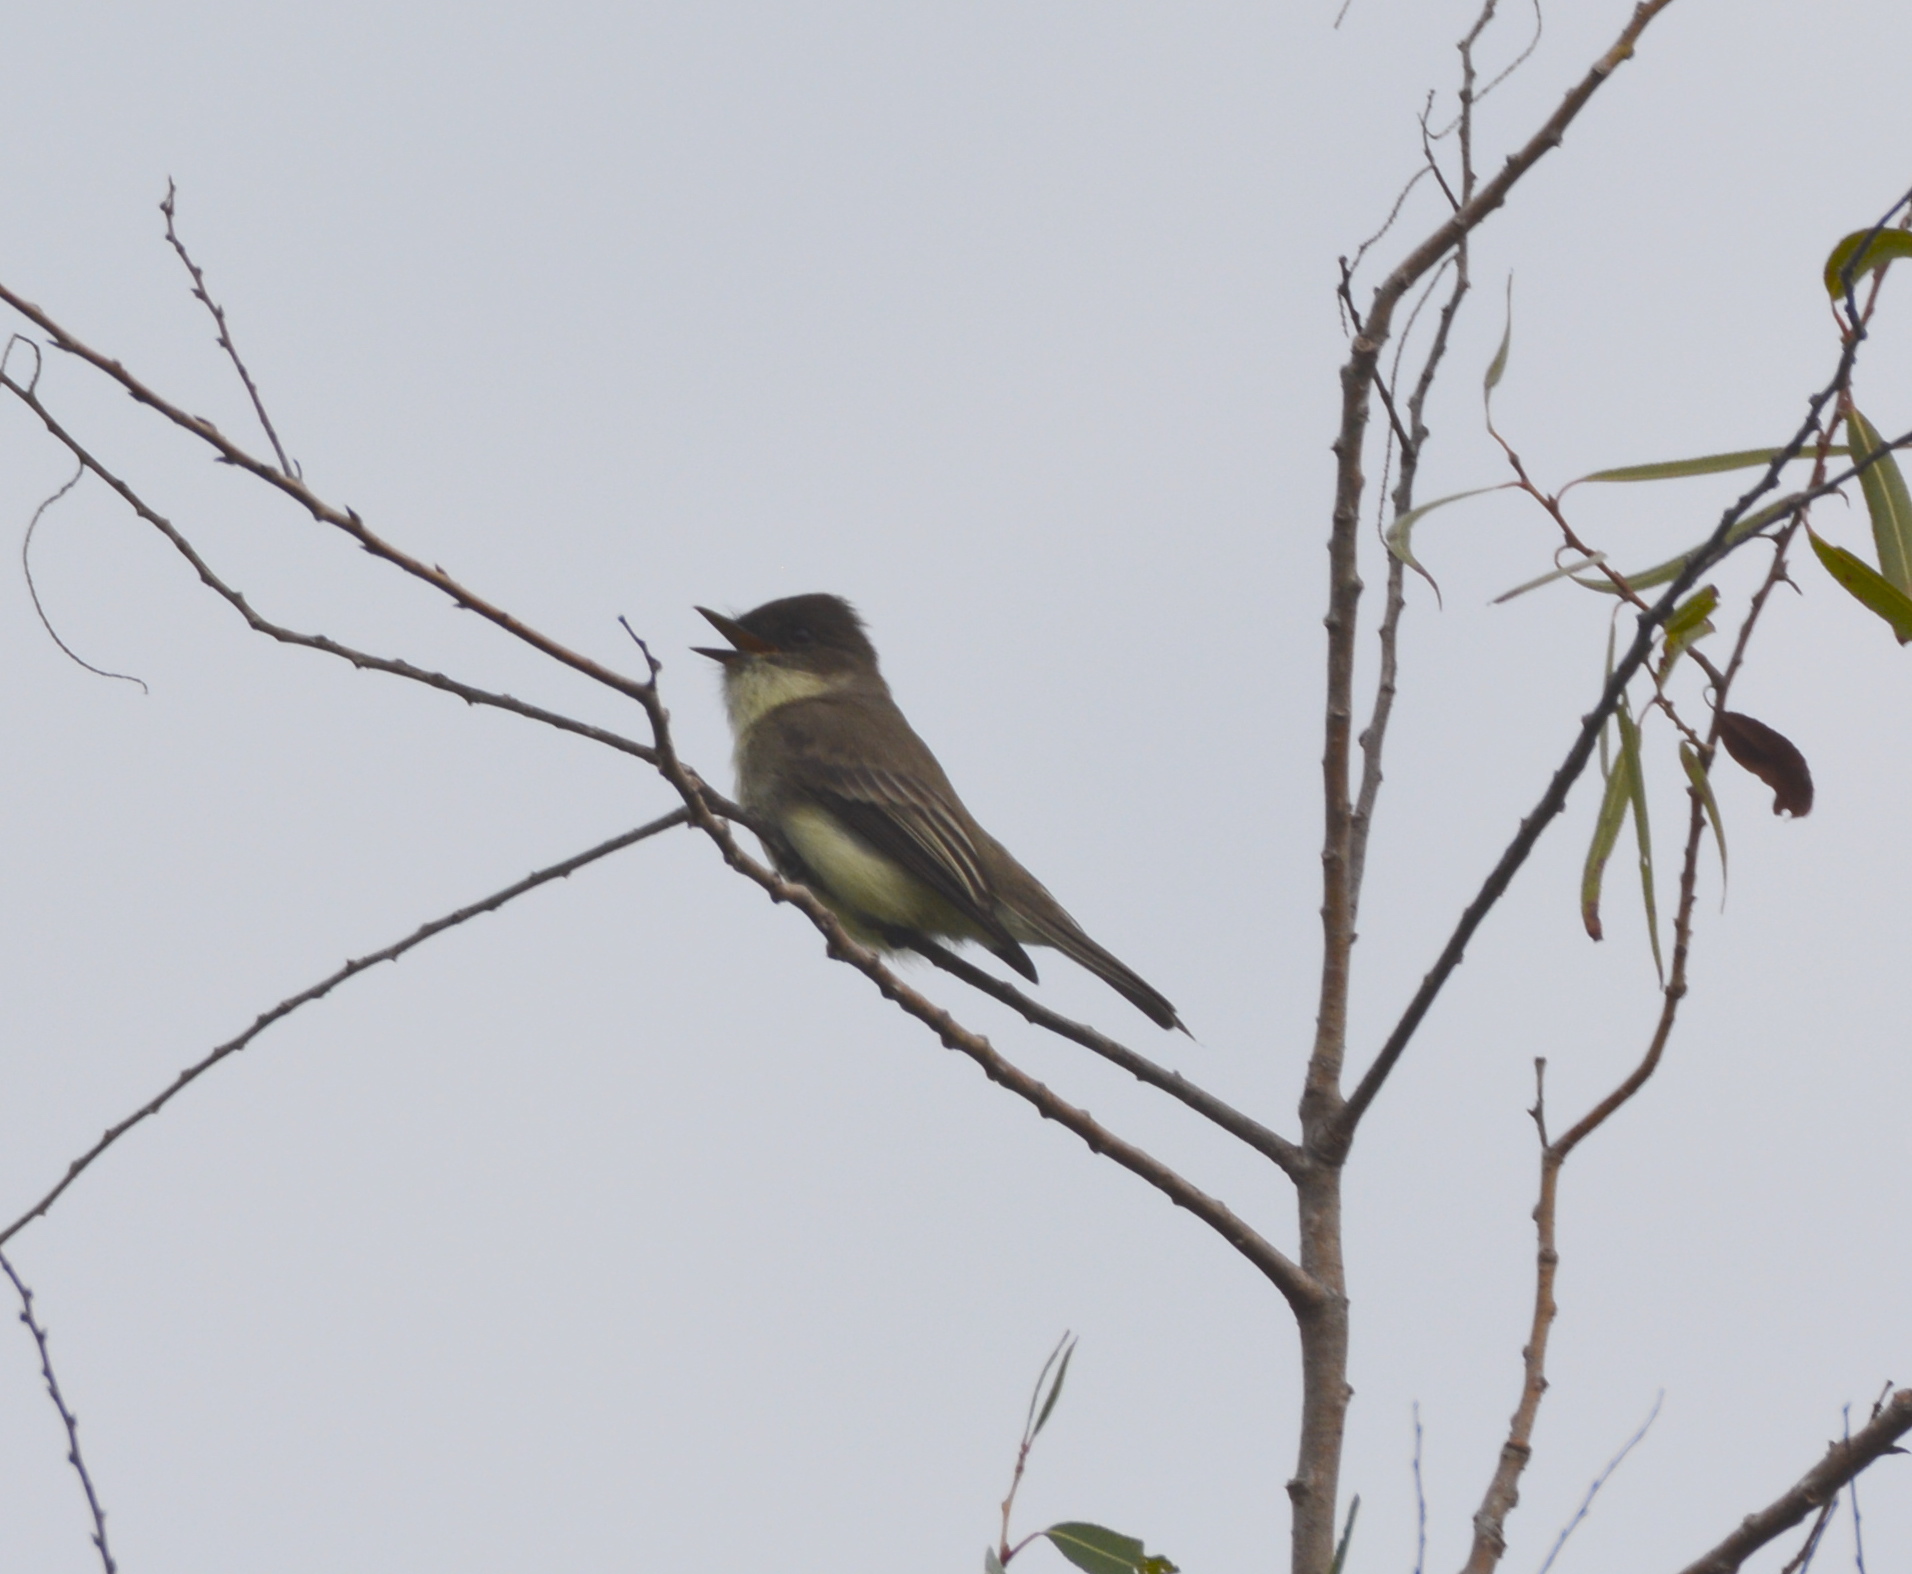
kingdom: Animalia
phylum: Chordata
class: Aves
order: Passeriformes
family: Tyrannidae
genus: Sayornis
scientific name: Sayornis phoebe
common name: Eastern phoebe
